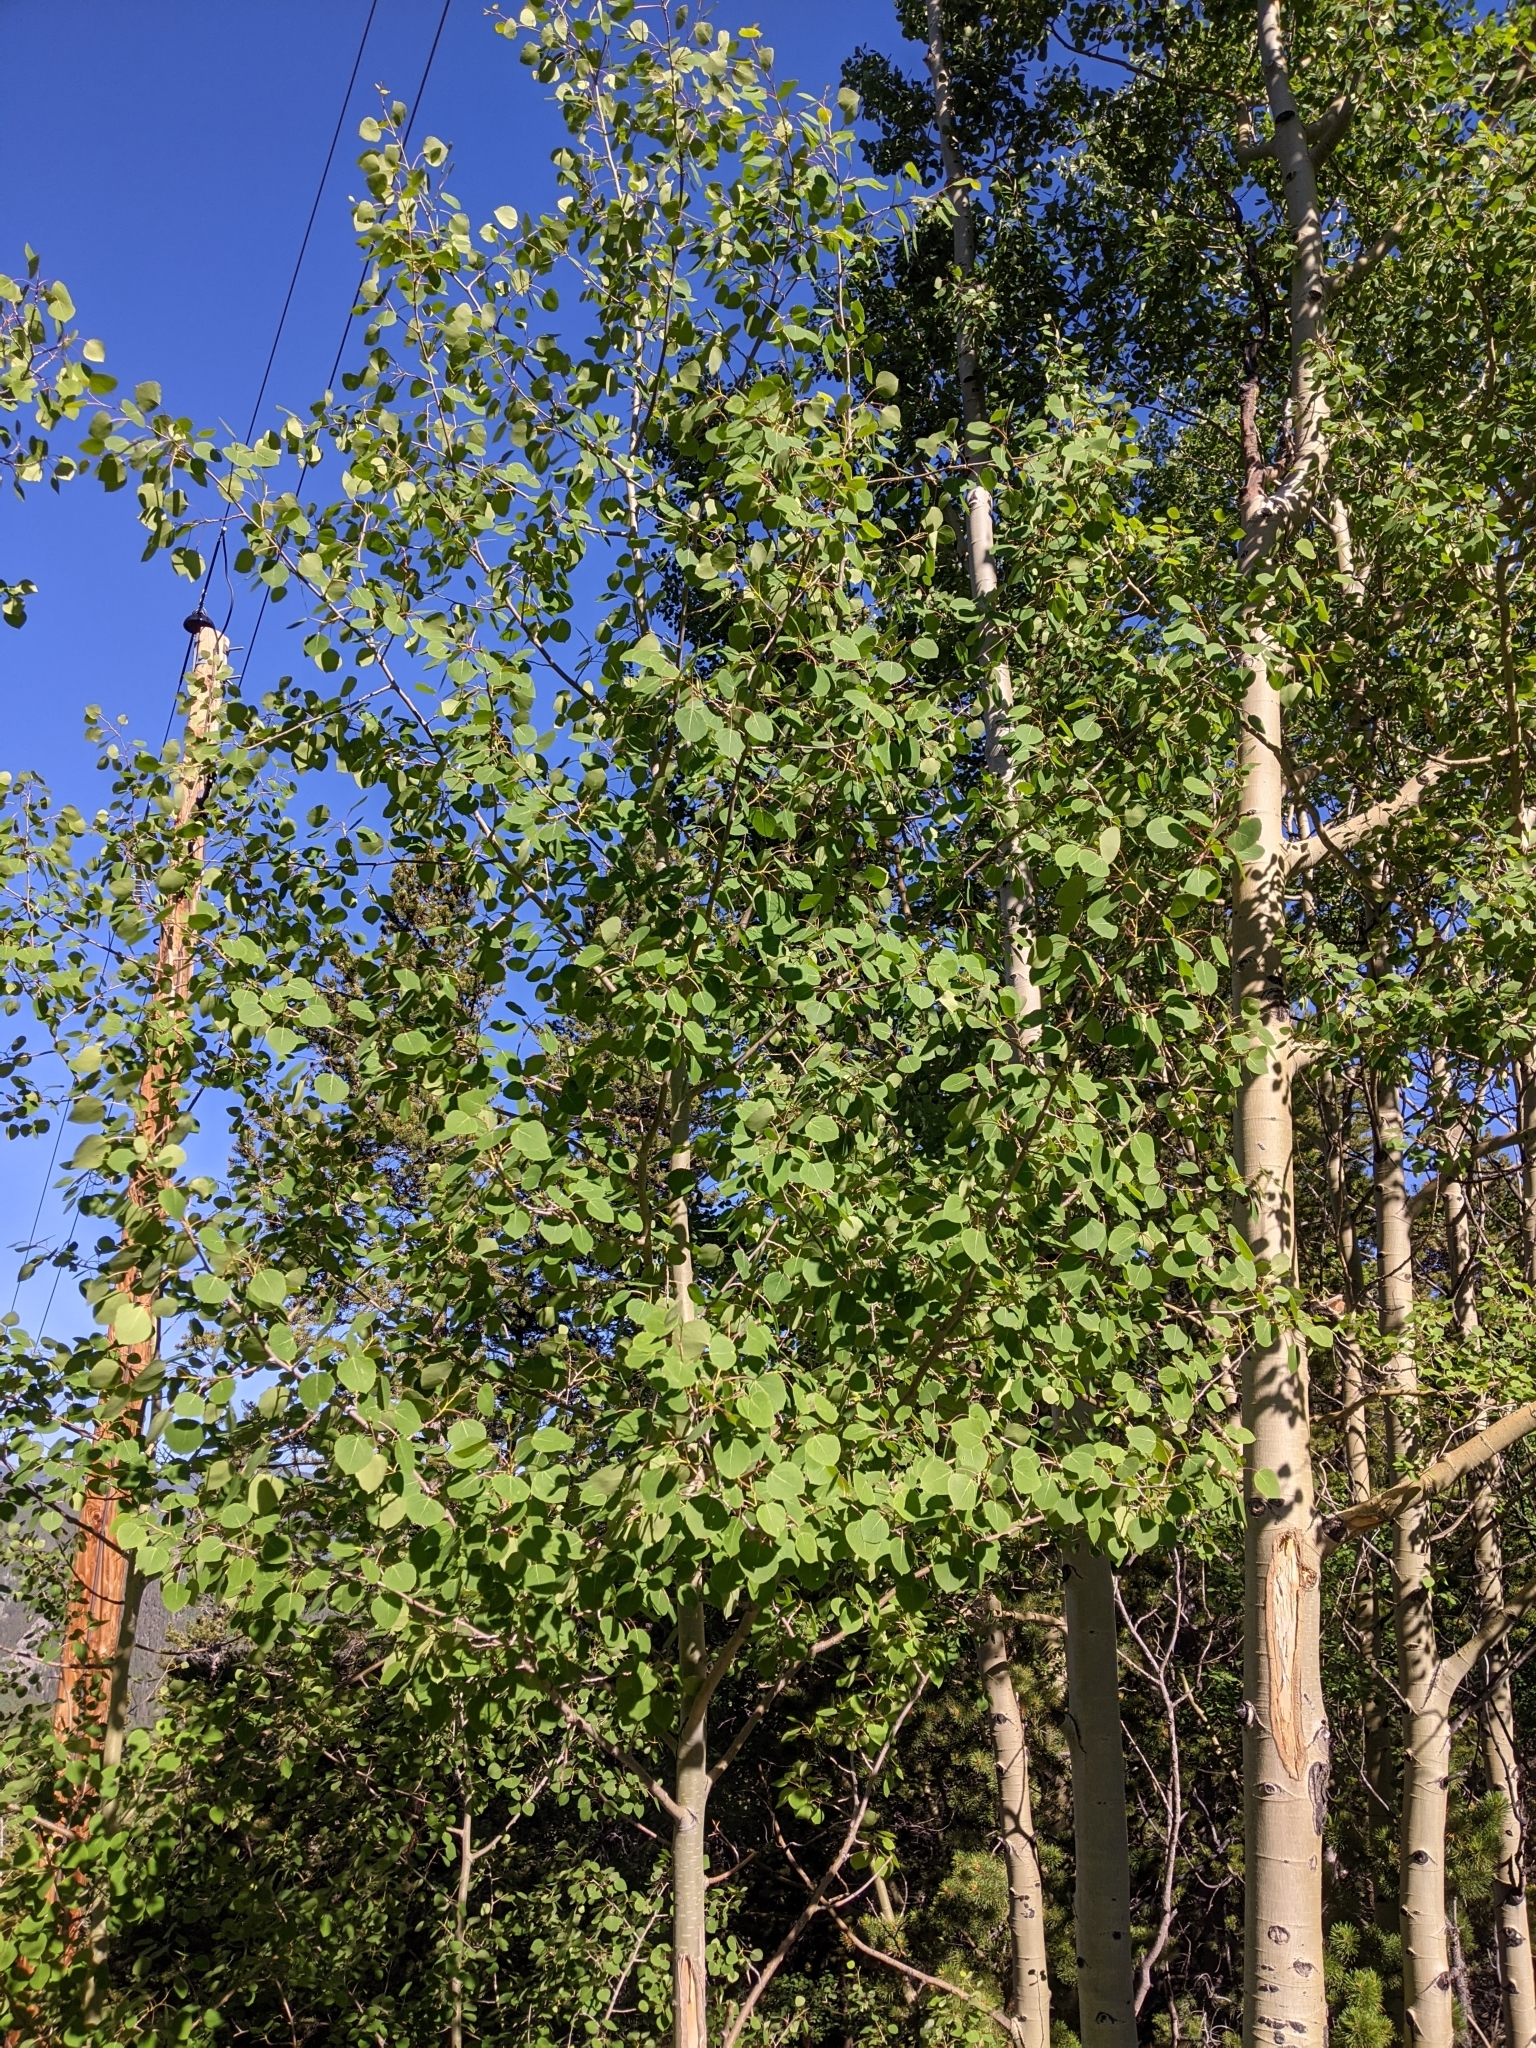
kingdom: Plantae
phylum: Tracheophyta
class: Magnoliopsida
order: Malpighiales
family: Salicaceae
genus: Populus
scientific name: Populus tremuloides
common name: Quaking aspen
